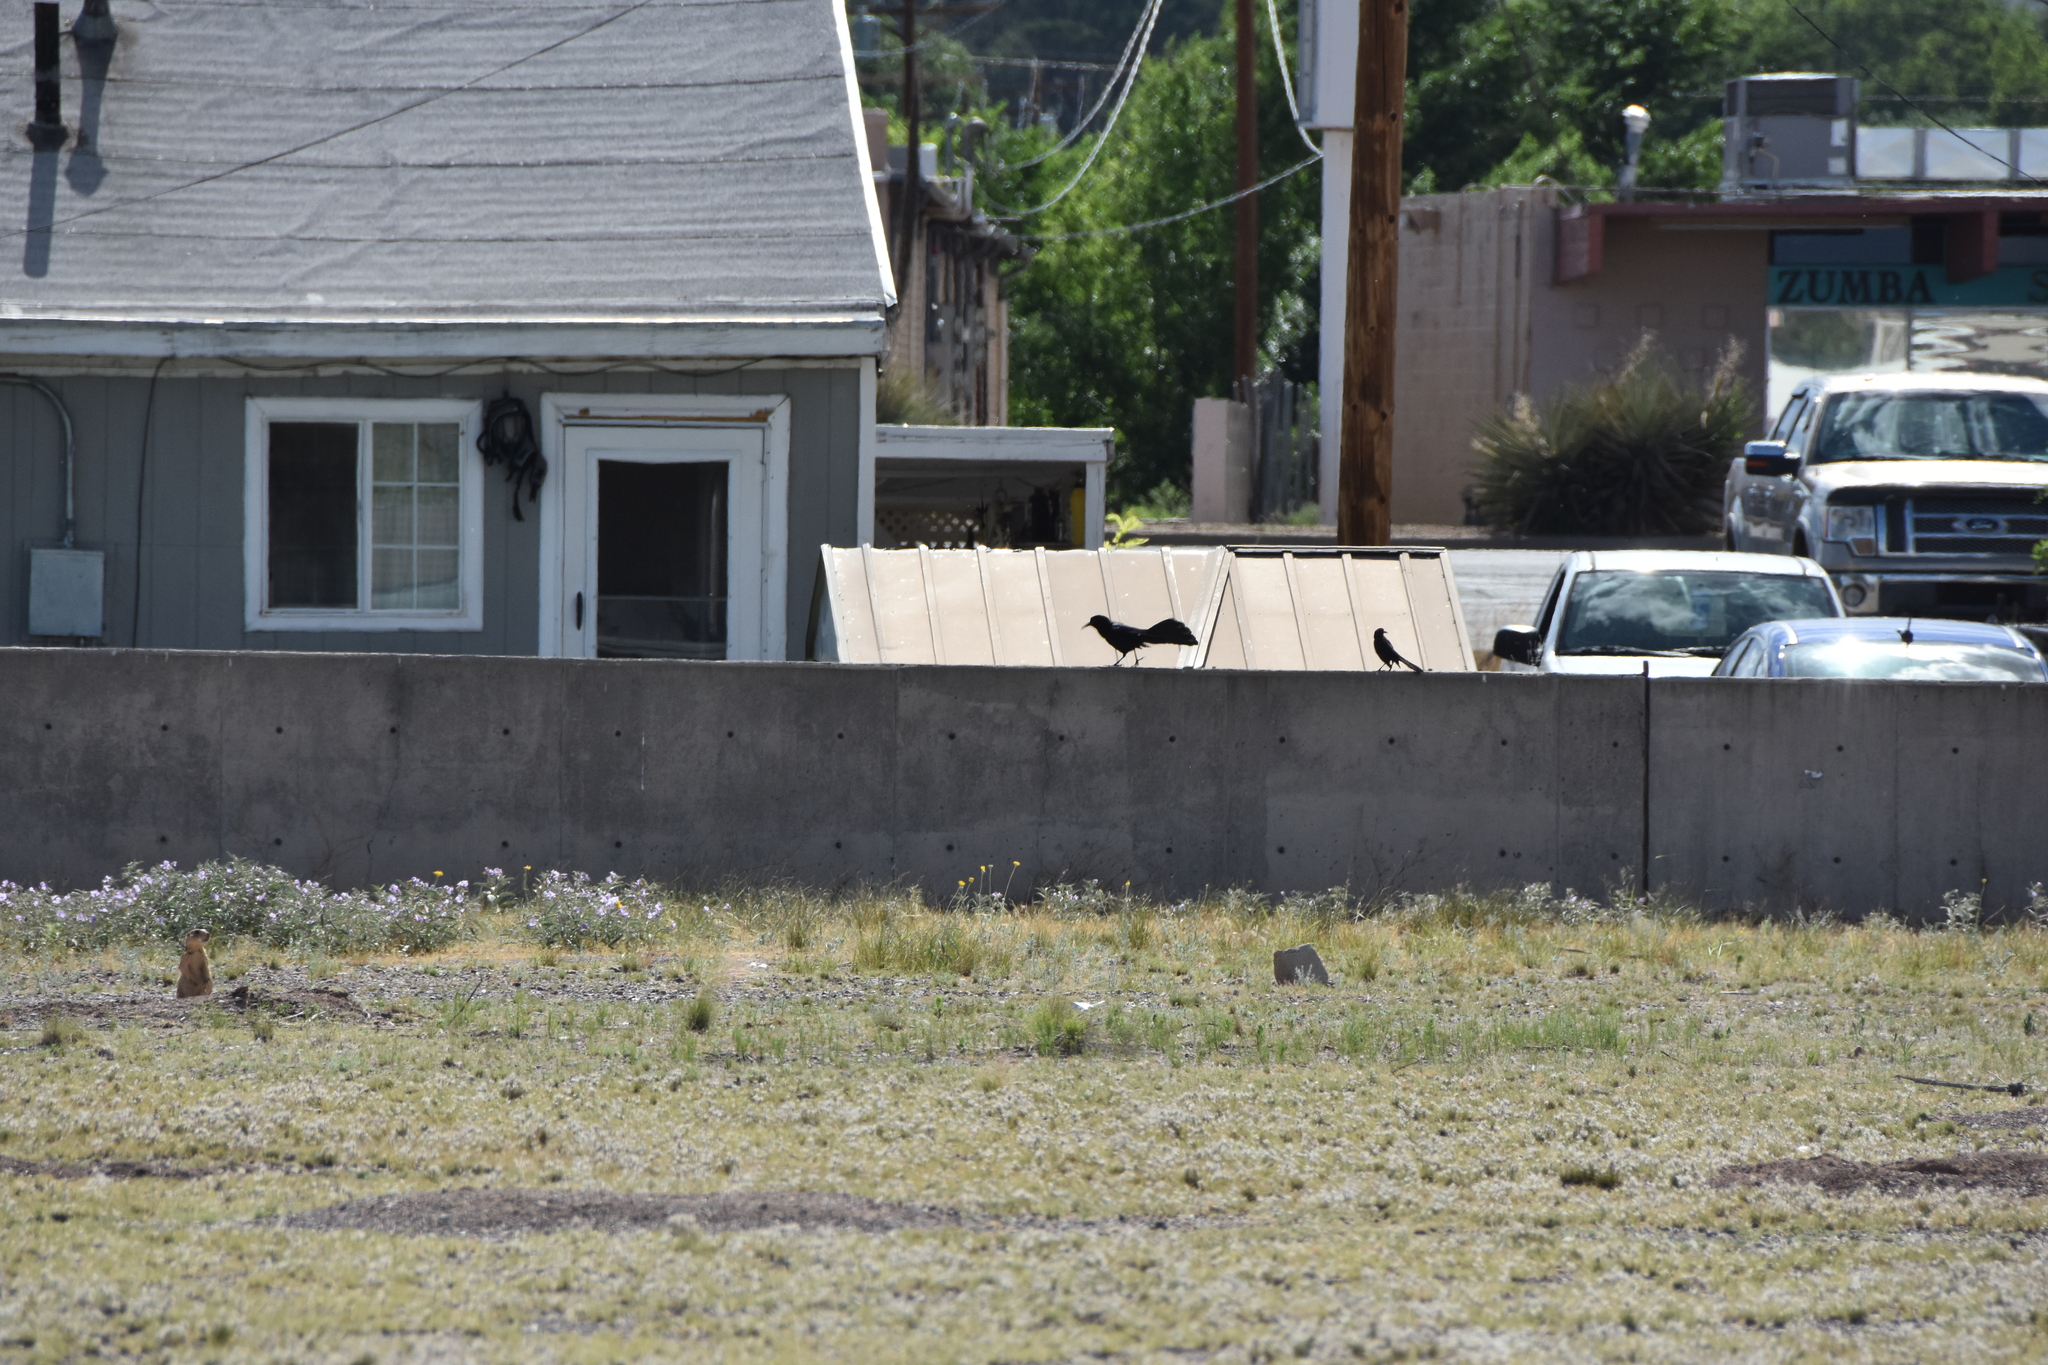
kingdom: Animalia
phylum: Chordata
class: Mammalia
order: Rodentia
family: Sciuridae
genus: Cynomys
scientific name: Cynomys gunnisoni
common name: Gunnison's prairie dog
